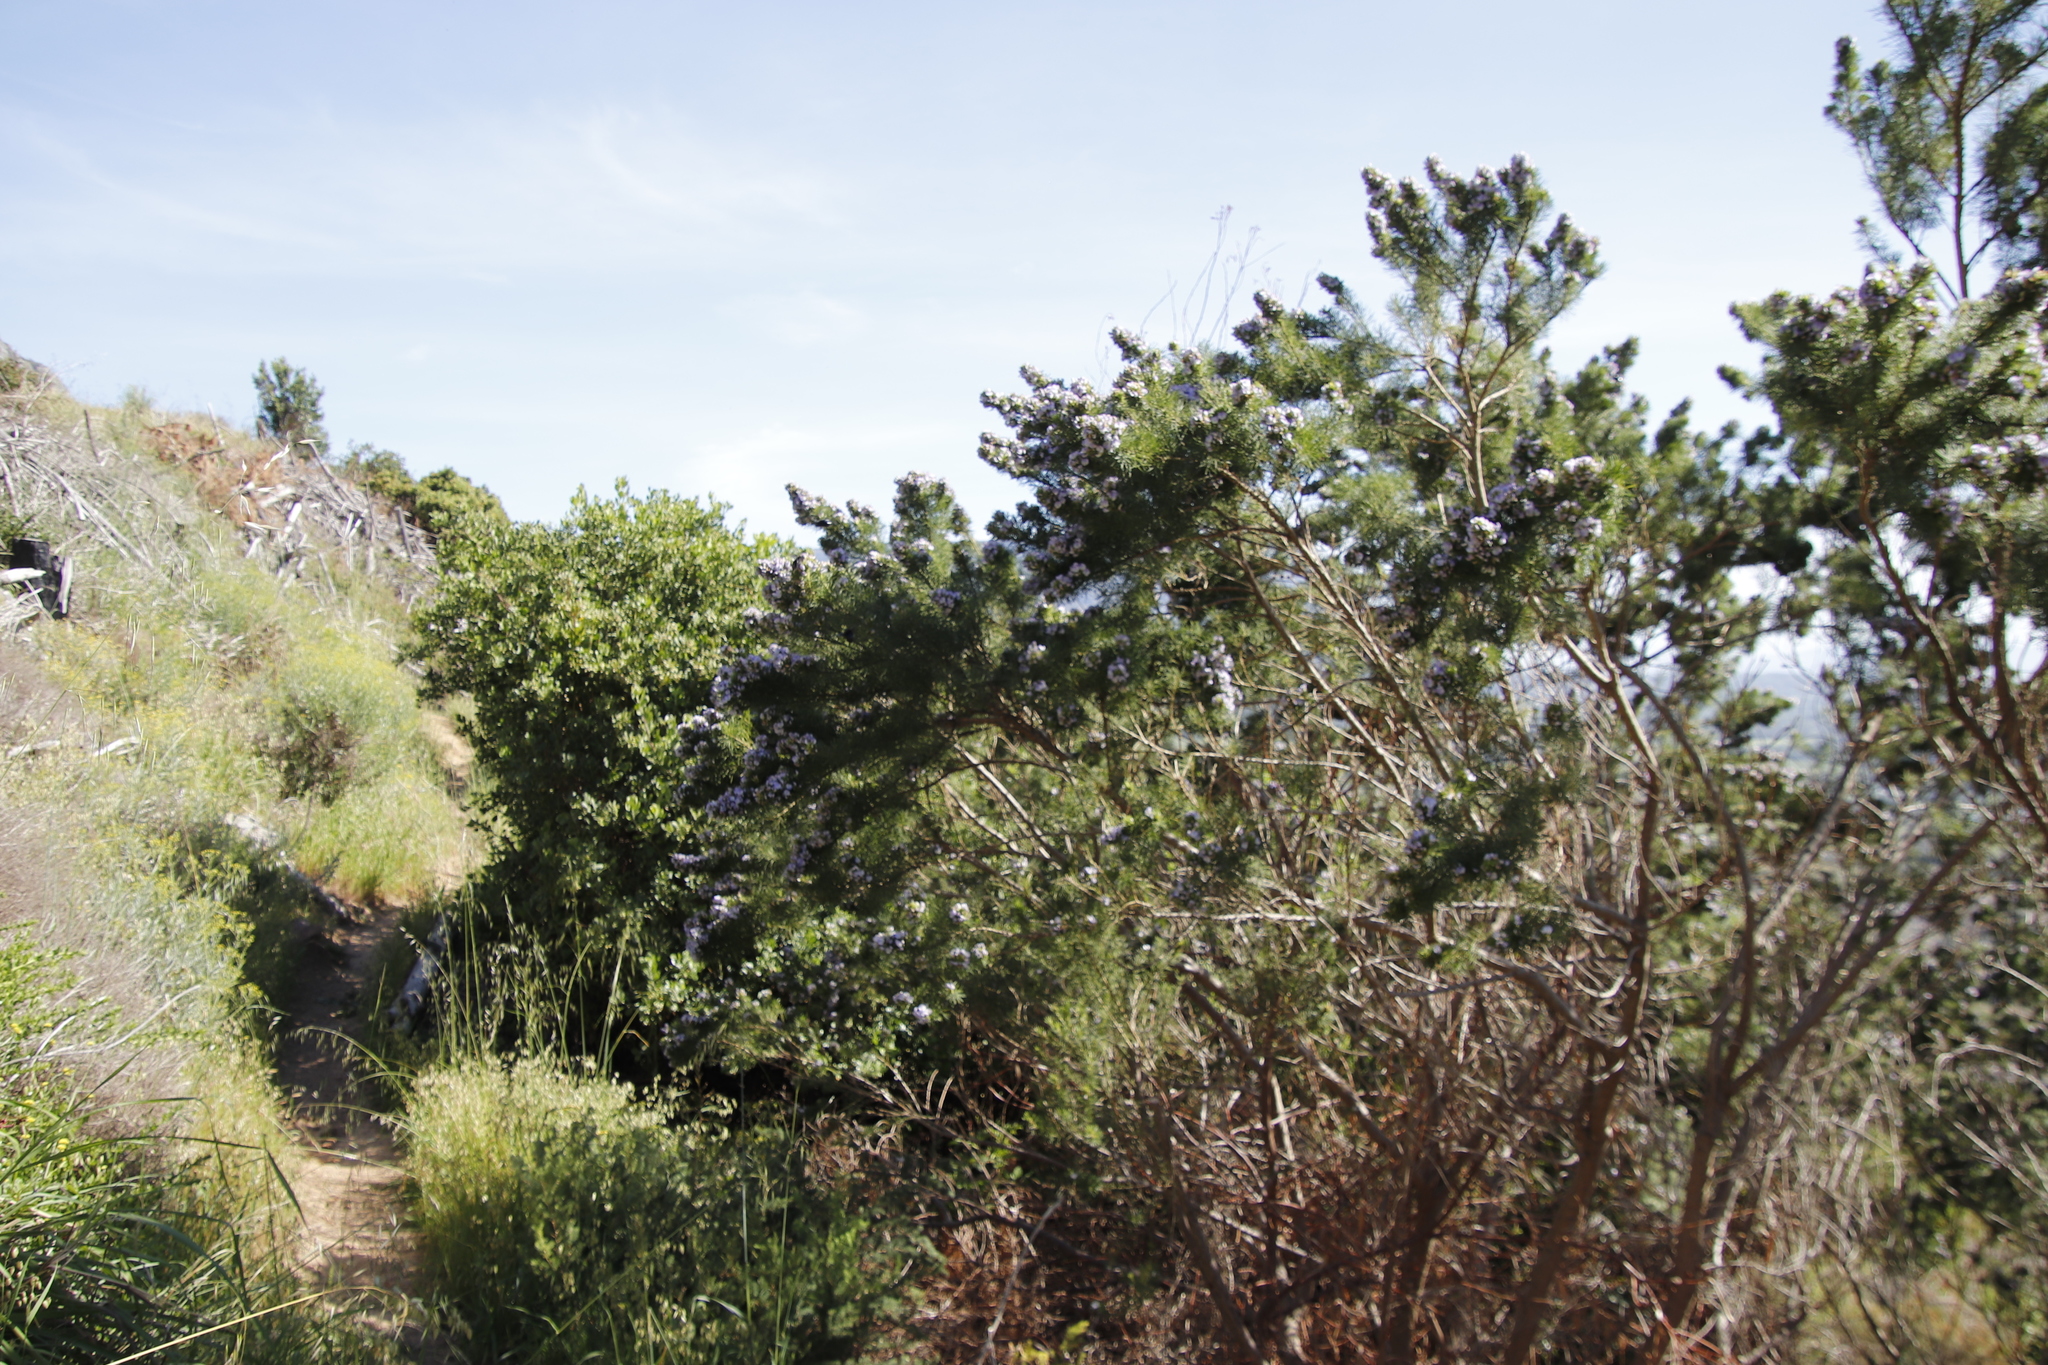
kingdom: Plantae
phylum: Tracheophyta
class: Magnoliopsida
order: Fabales
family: Fabaceae
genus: Psoralea
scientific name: Psoralea pinnata
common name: African scurfpea
